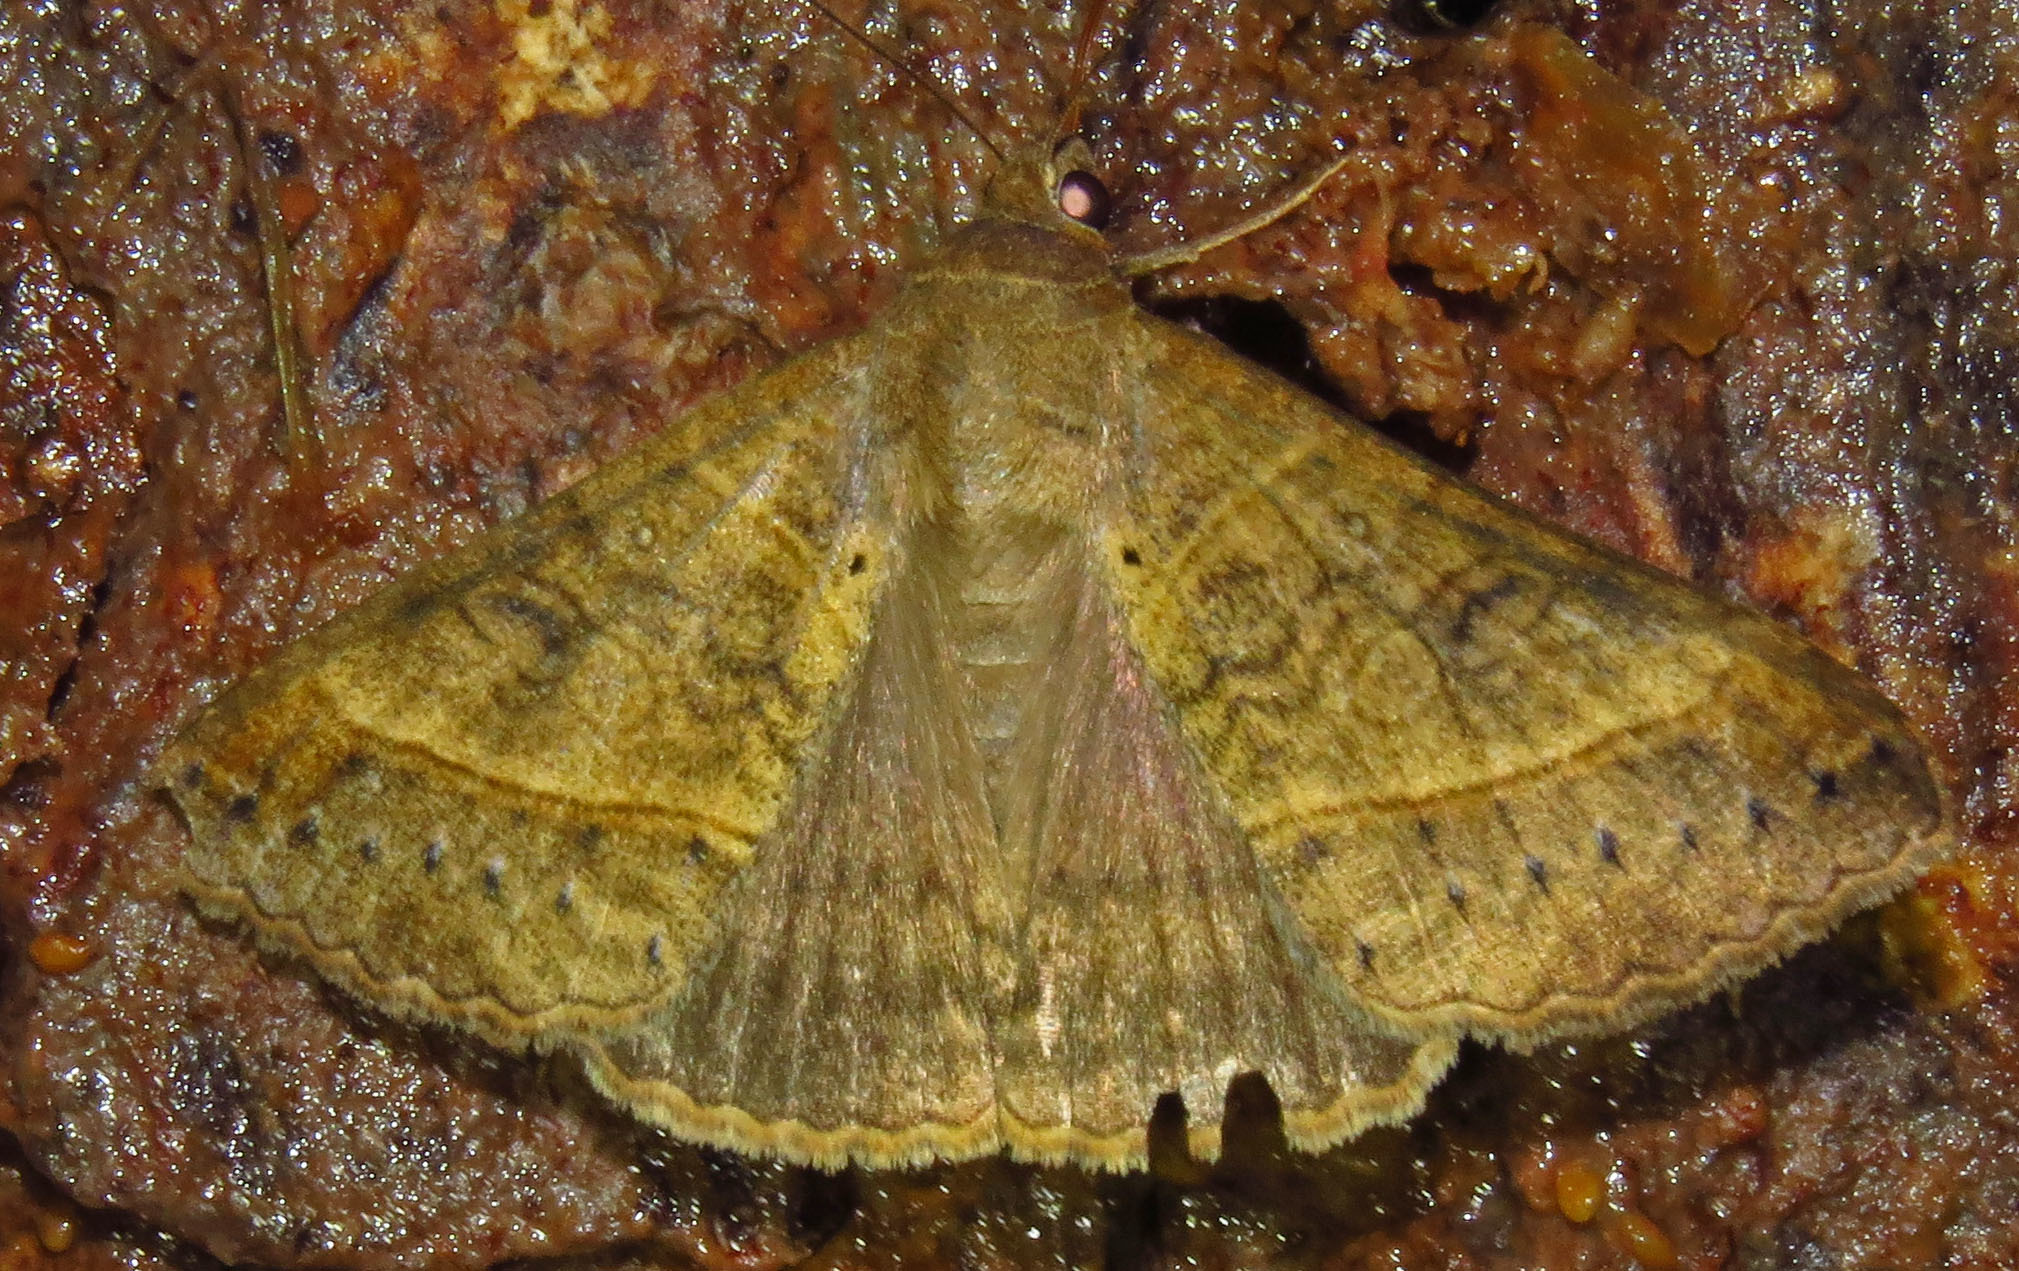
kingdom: Animalia
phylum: Arthropoda
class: Insecta
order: Lepidoptera
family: Erebidae
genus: Mocis
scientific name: Mocis latipes
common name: Striped grass looper
